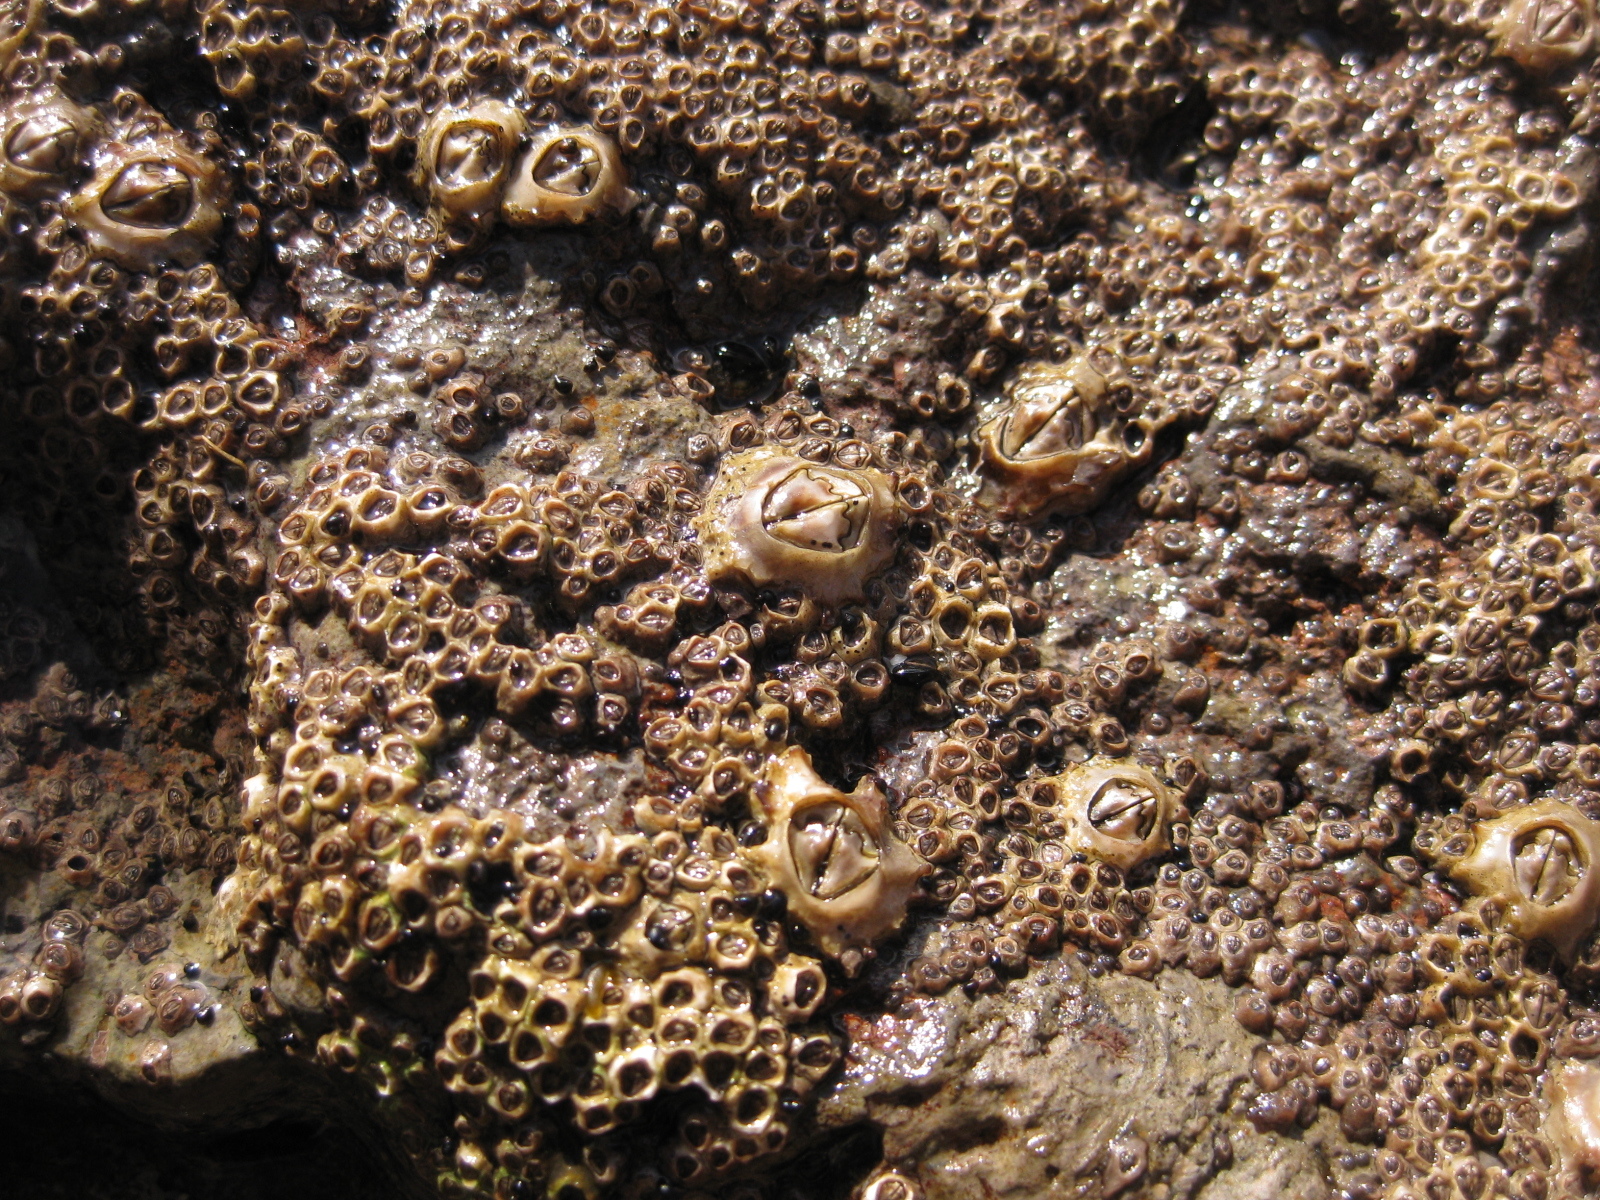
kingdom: Animalia
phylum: Arthropoda
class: Maxillopoda
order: Sessilia
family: Chthamalidae
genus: Chamaesipho
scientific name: Chamaesipho brunnea
